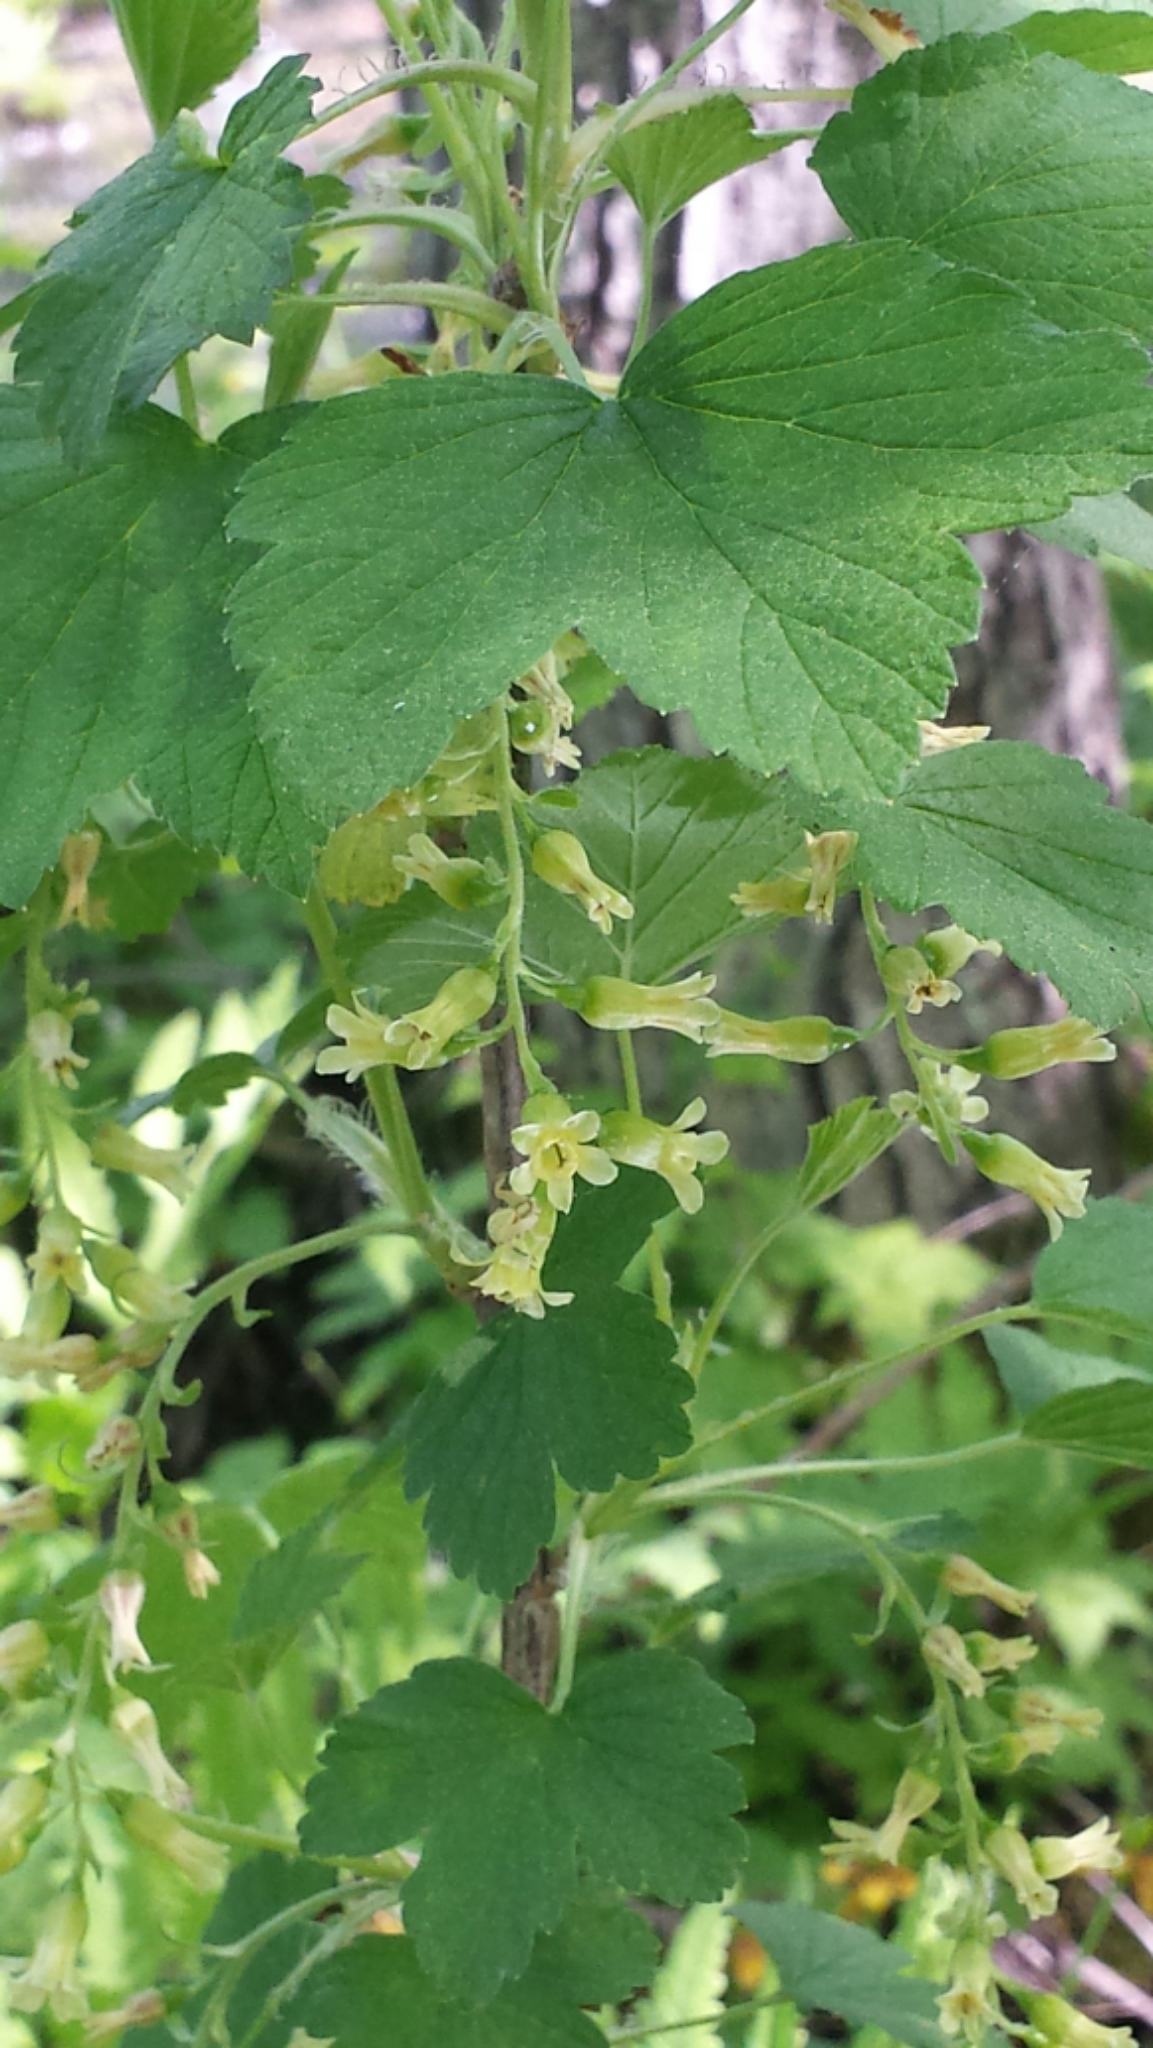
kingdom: Plantae
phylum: Tracheophyta
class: Magnoliopsida
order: Saxifragales
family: Grossulariaceae
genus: Ribes
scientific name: Ribes americanum
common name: American black currant
